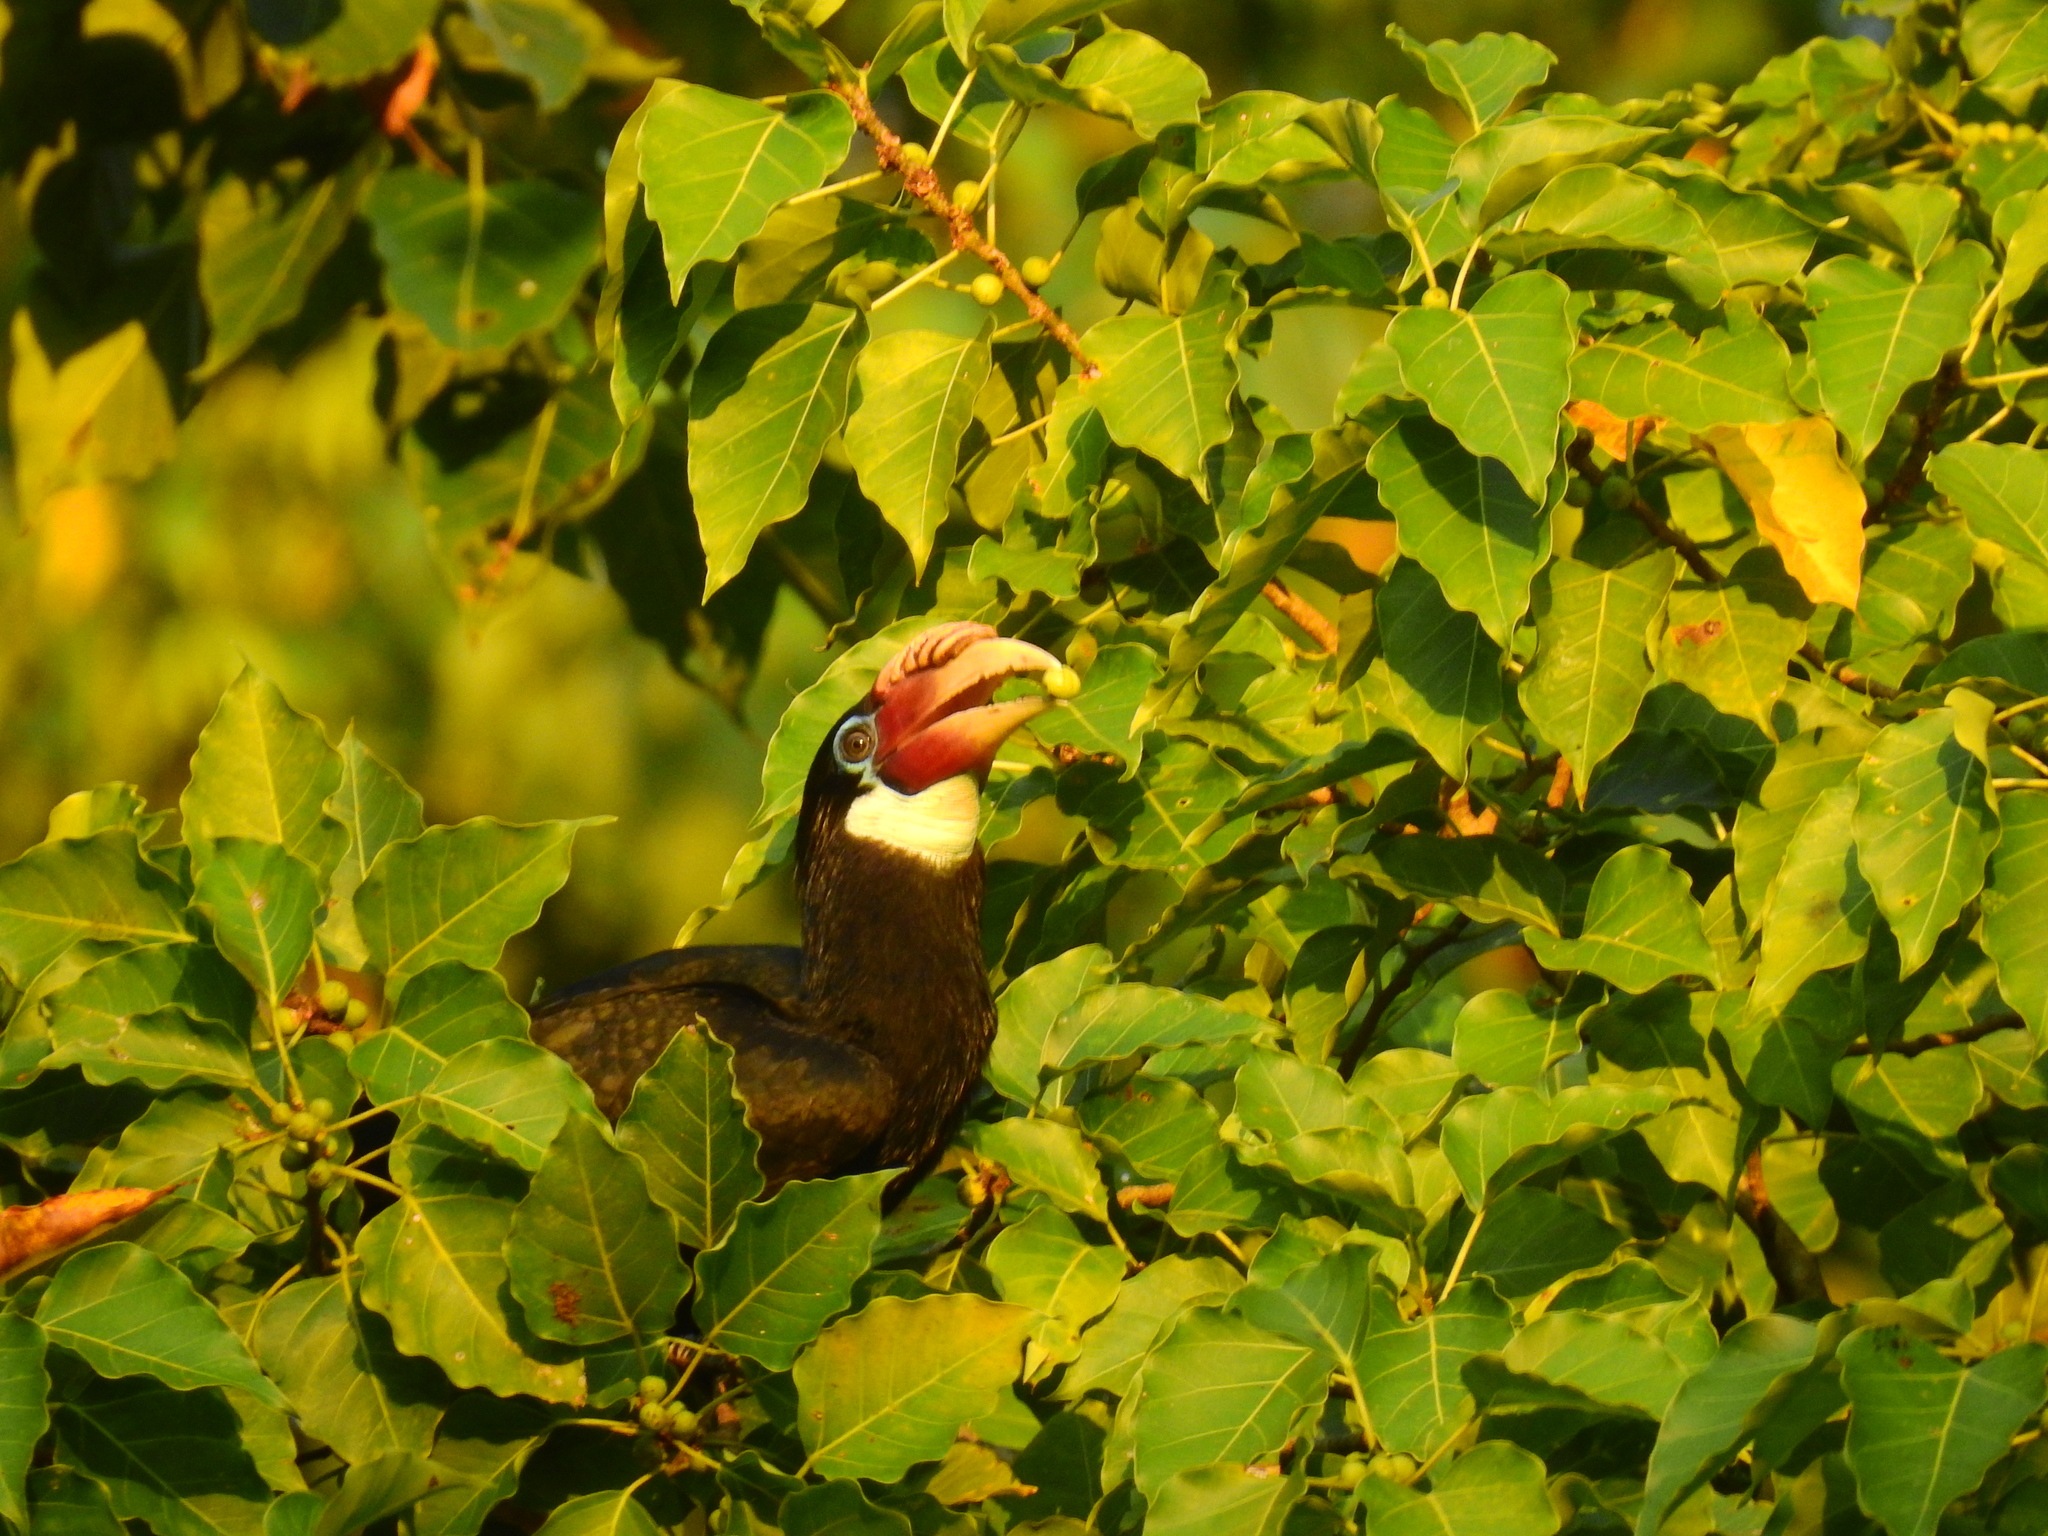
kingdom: Animalia
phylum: Chordata
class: Aves
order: Bucerotiformes
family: Bucerotidae
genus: Rhyticeros
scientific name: Rhyticeros narcondami
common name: Narcondam hornbill
